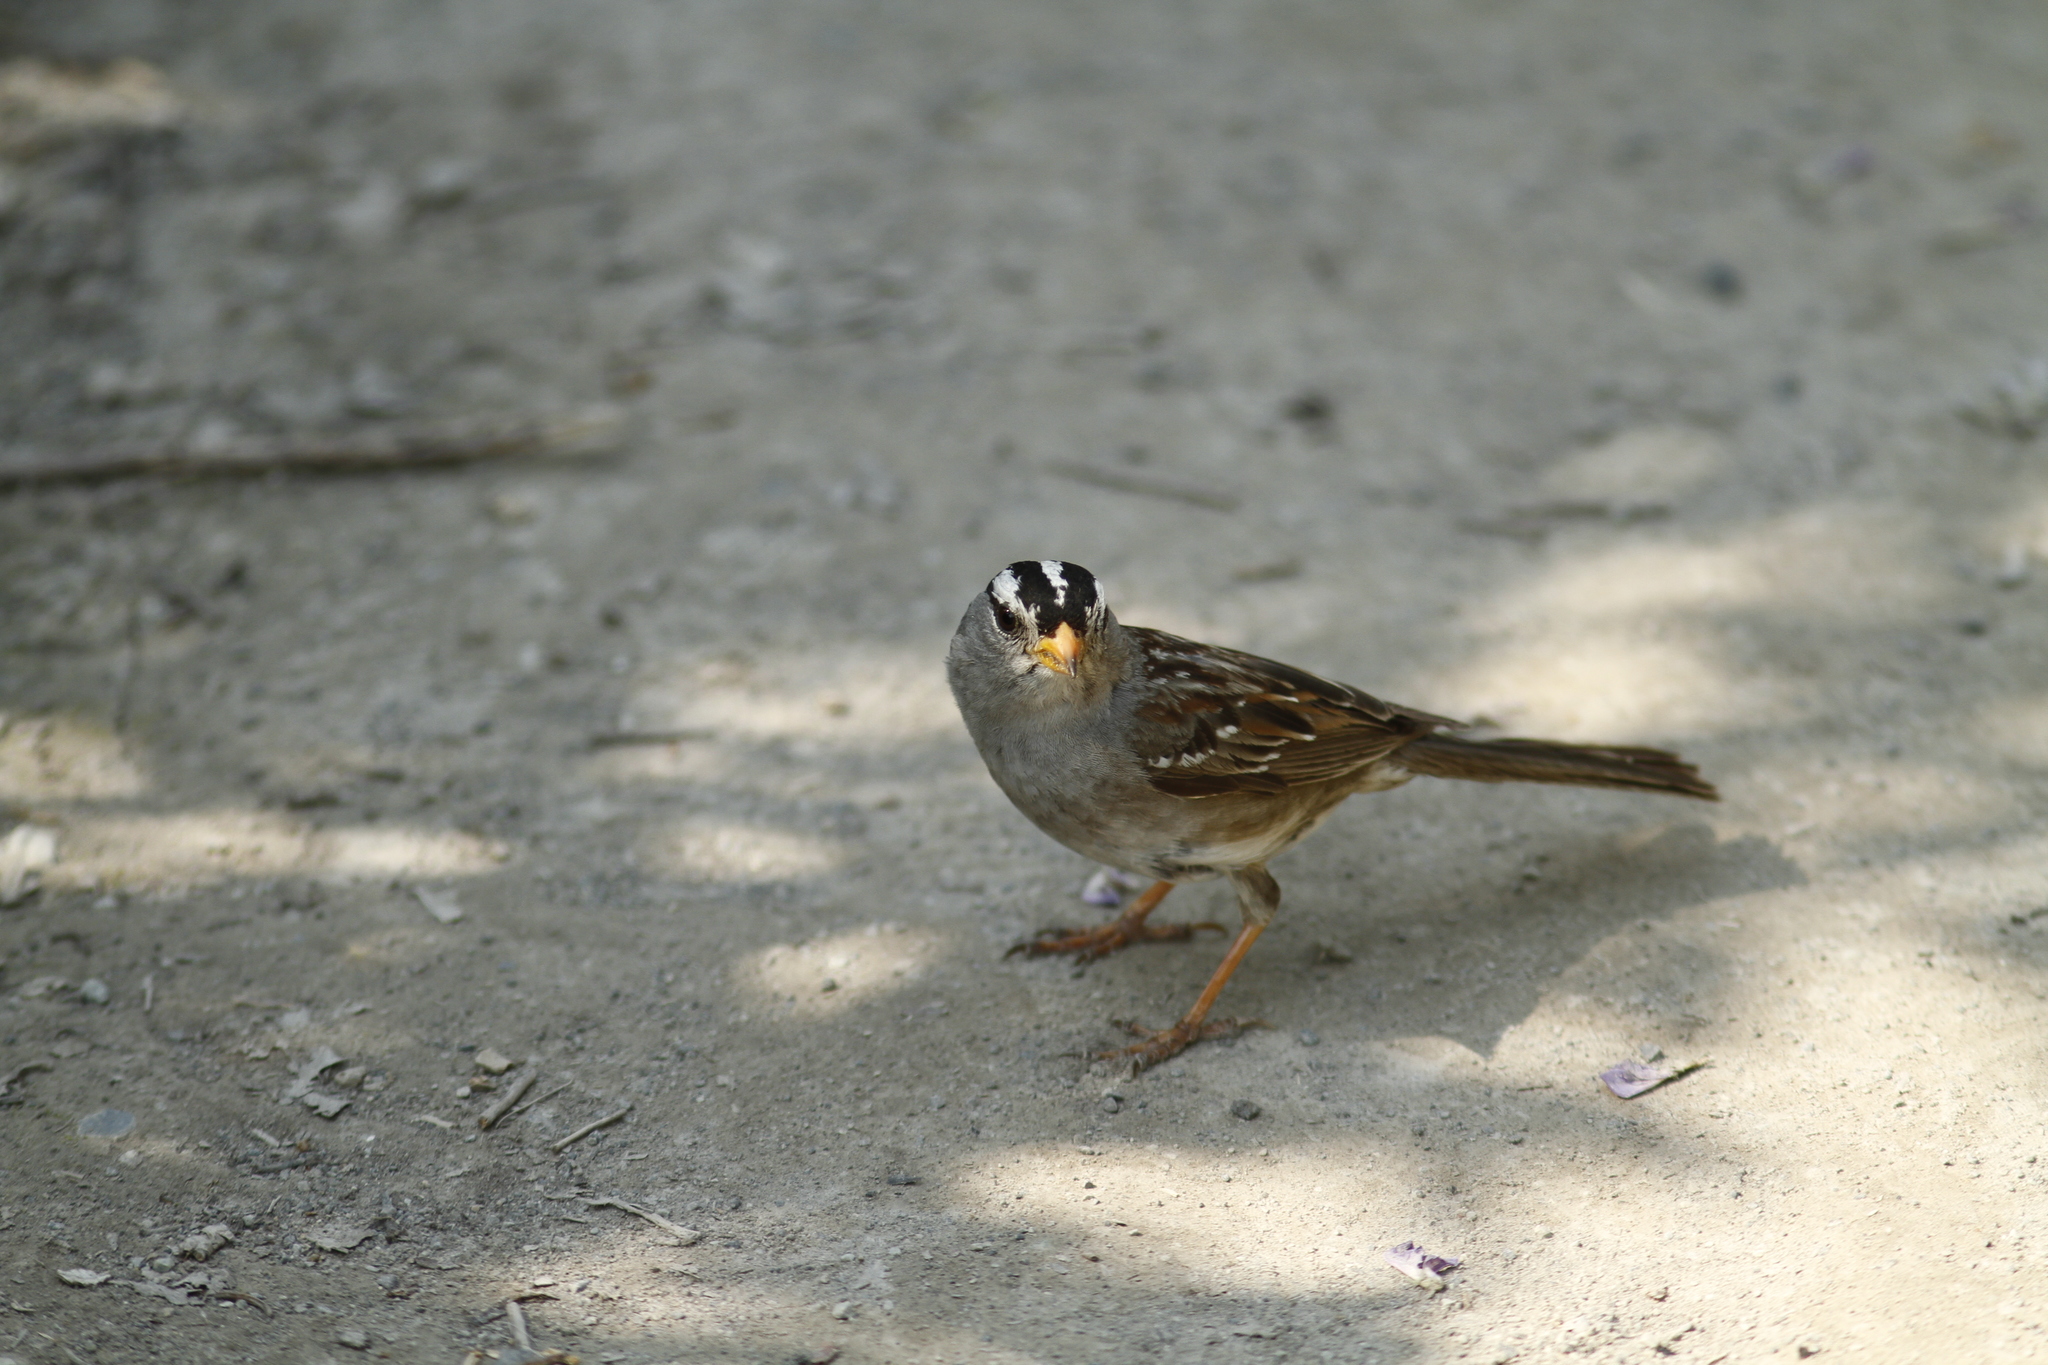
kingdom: Animalia
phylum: Chordata
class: Aves
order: Passeriformes
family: Passerellidae
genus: Zonotrichia
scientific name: Zonotrichia leucophrys
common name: White-crowned sparrow
